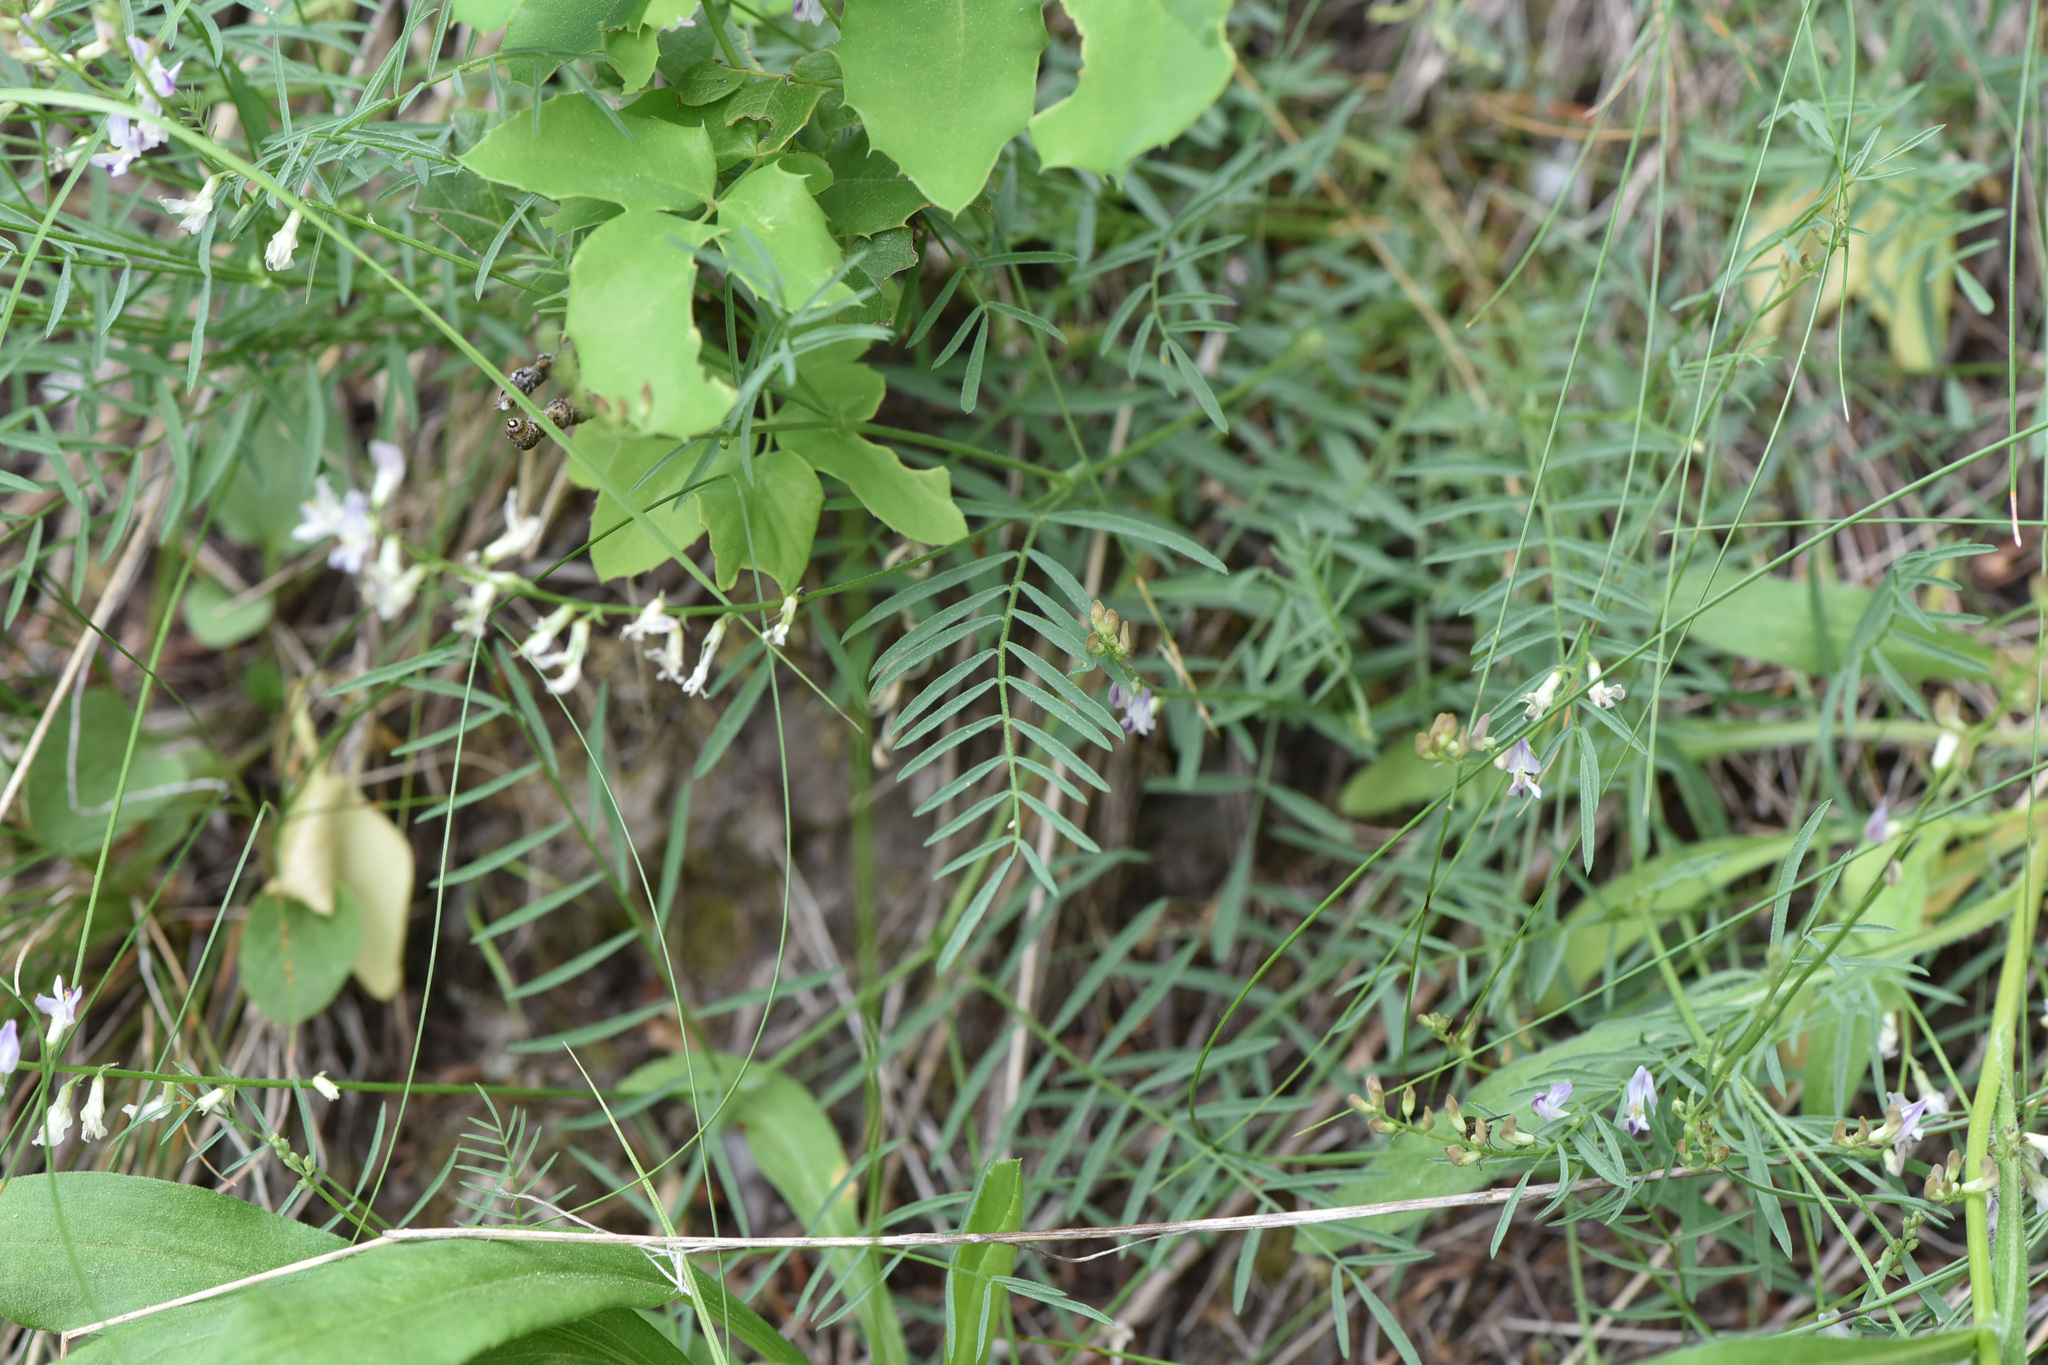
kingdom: Plantae
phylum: Tracheophyta
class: Magnoliopsida
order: Fabales
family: Fabaceae
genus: Astragalus
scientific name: Astragalus miser
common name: Timber milkvetch
